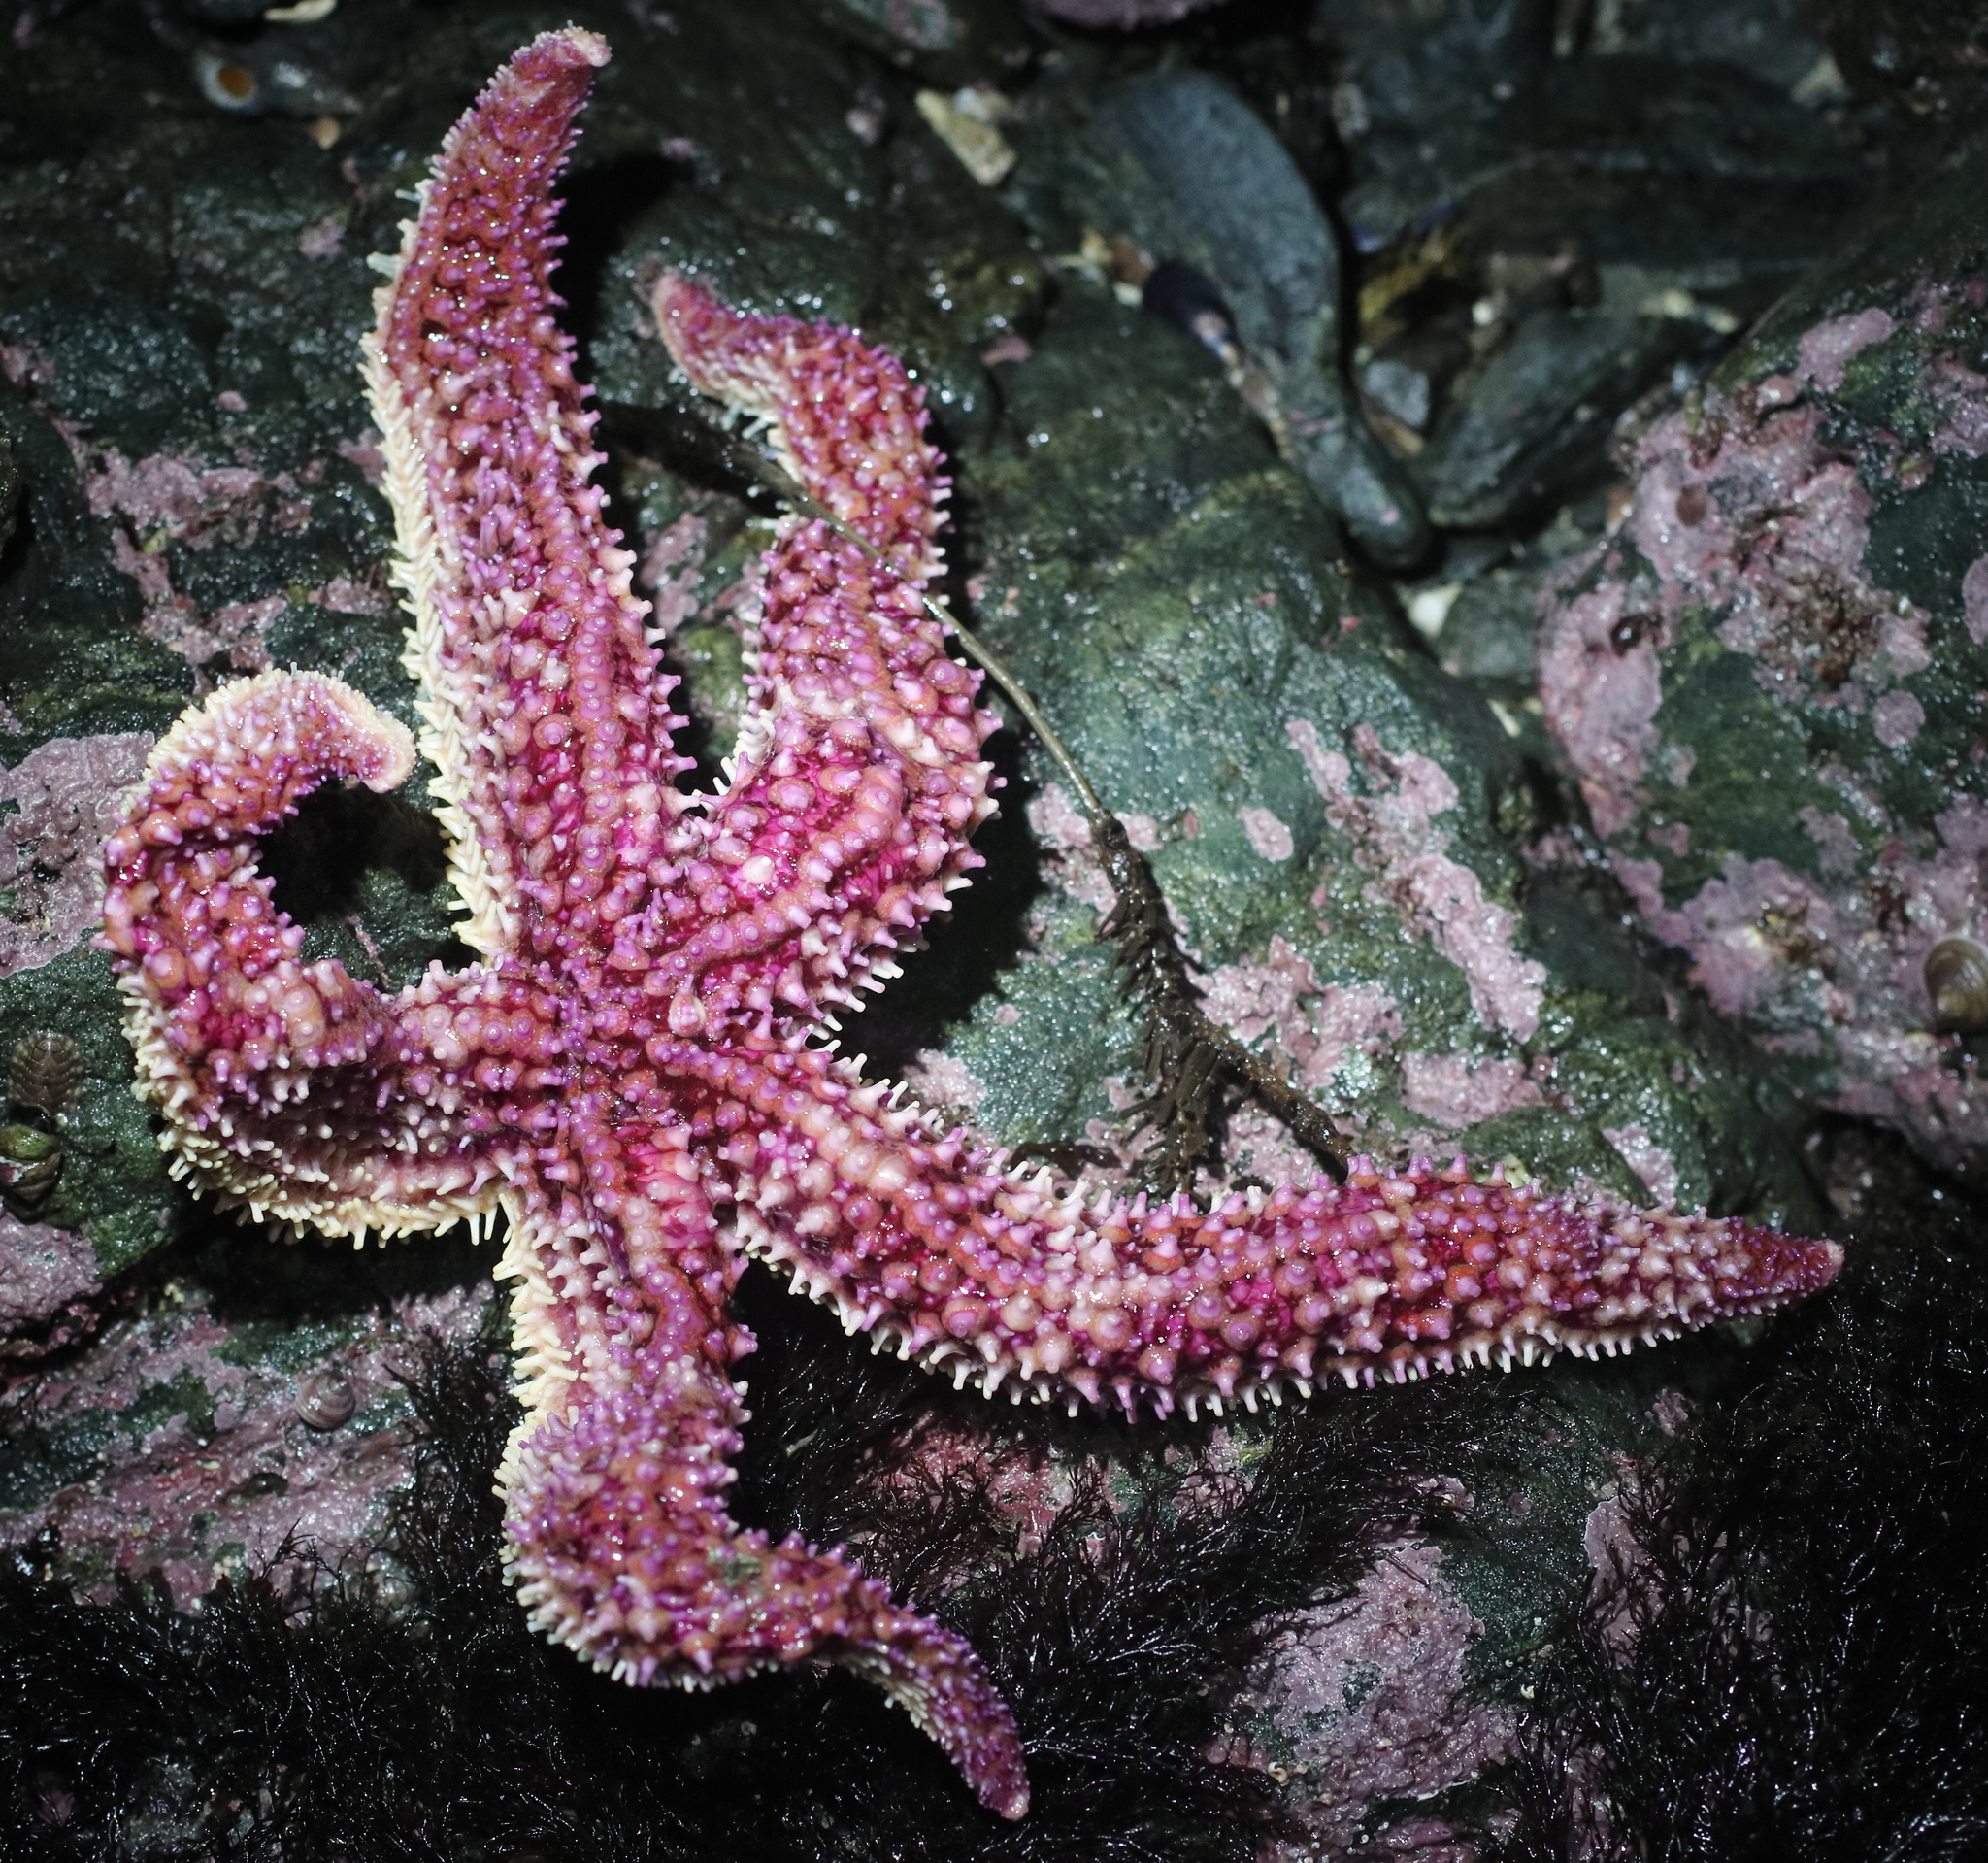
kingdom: Animalia
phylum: Echinodermata
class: Asteroidea
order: Forcipulatida
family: Asteriidae
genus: Orthasterias
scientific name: Orthasterias koehleri
